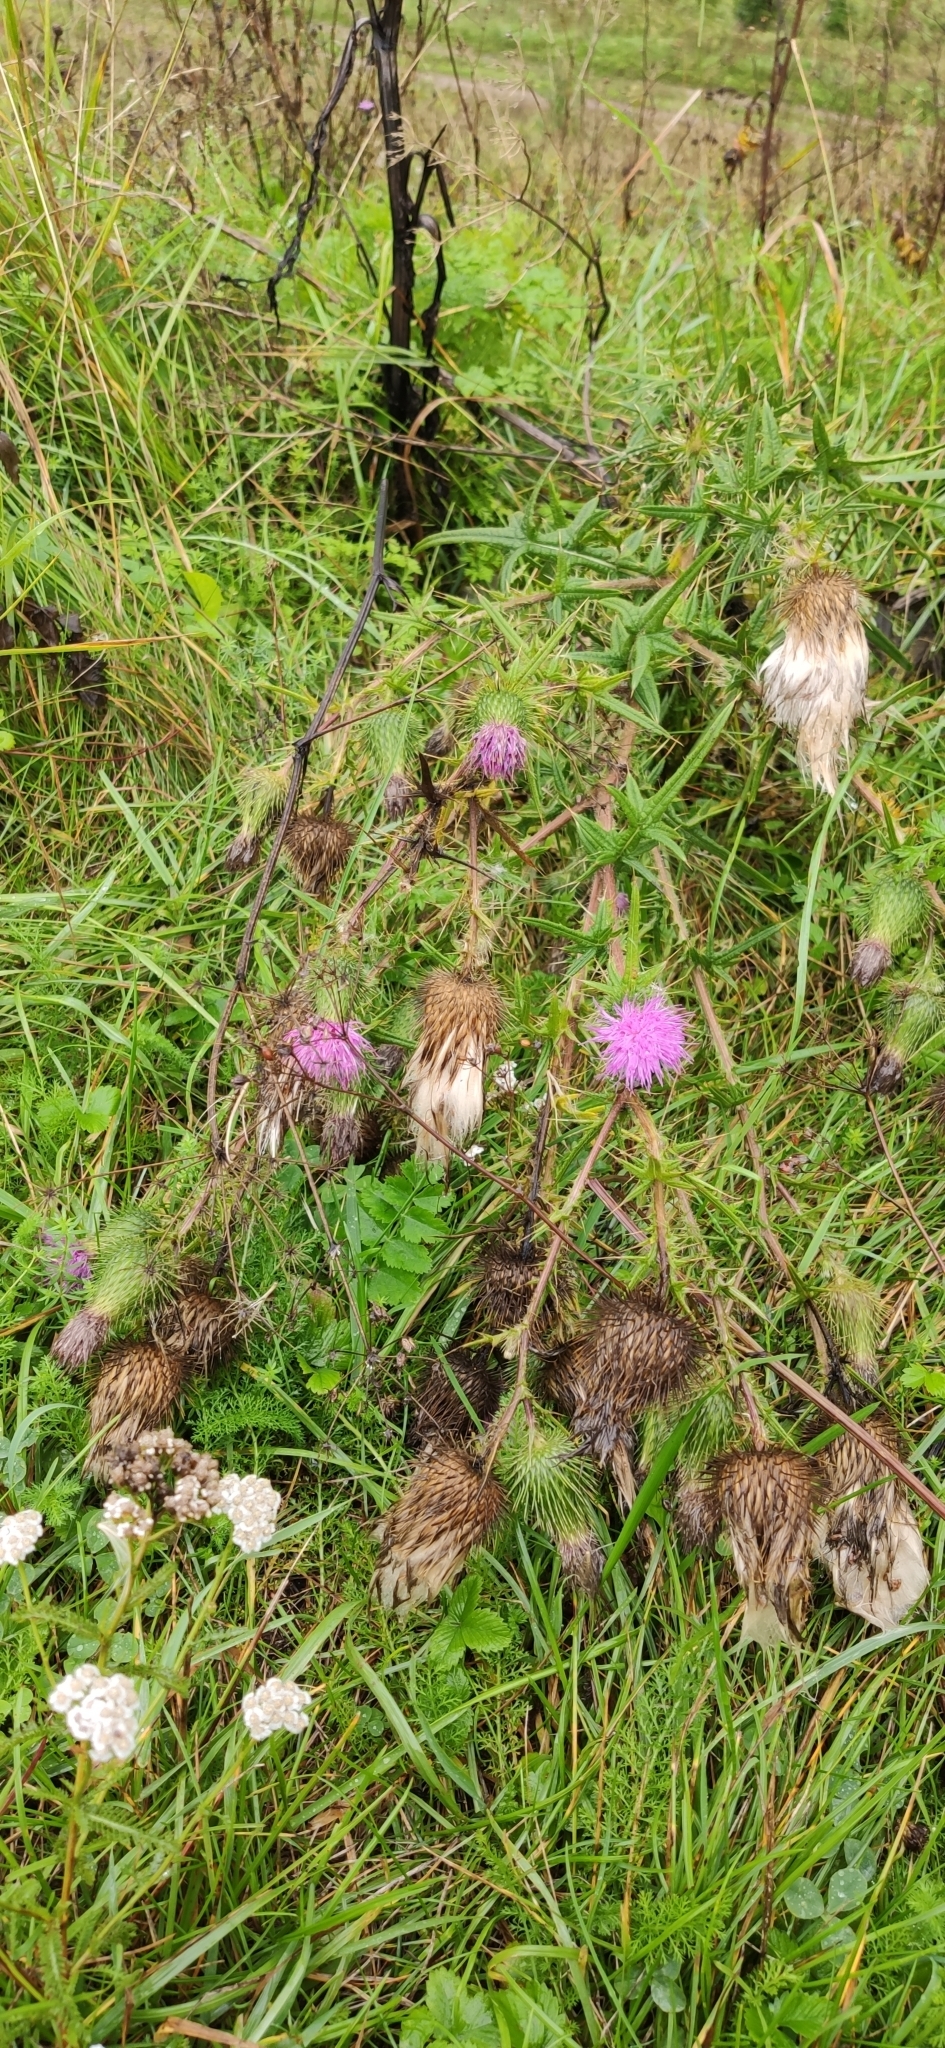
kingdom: Plantae
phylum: Tracheophyta
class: Magnoliopsida
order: Asterales
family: Asteraceae
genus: Cirsium
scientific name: Cirsium vulgare
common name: Bull thistle
